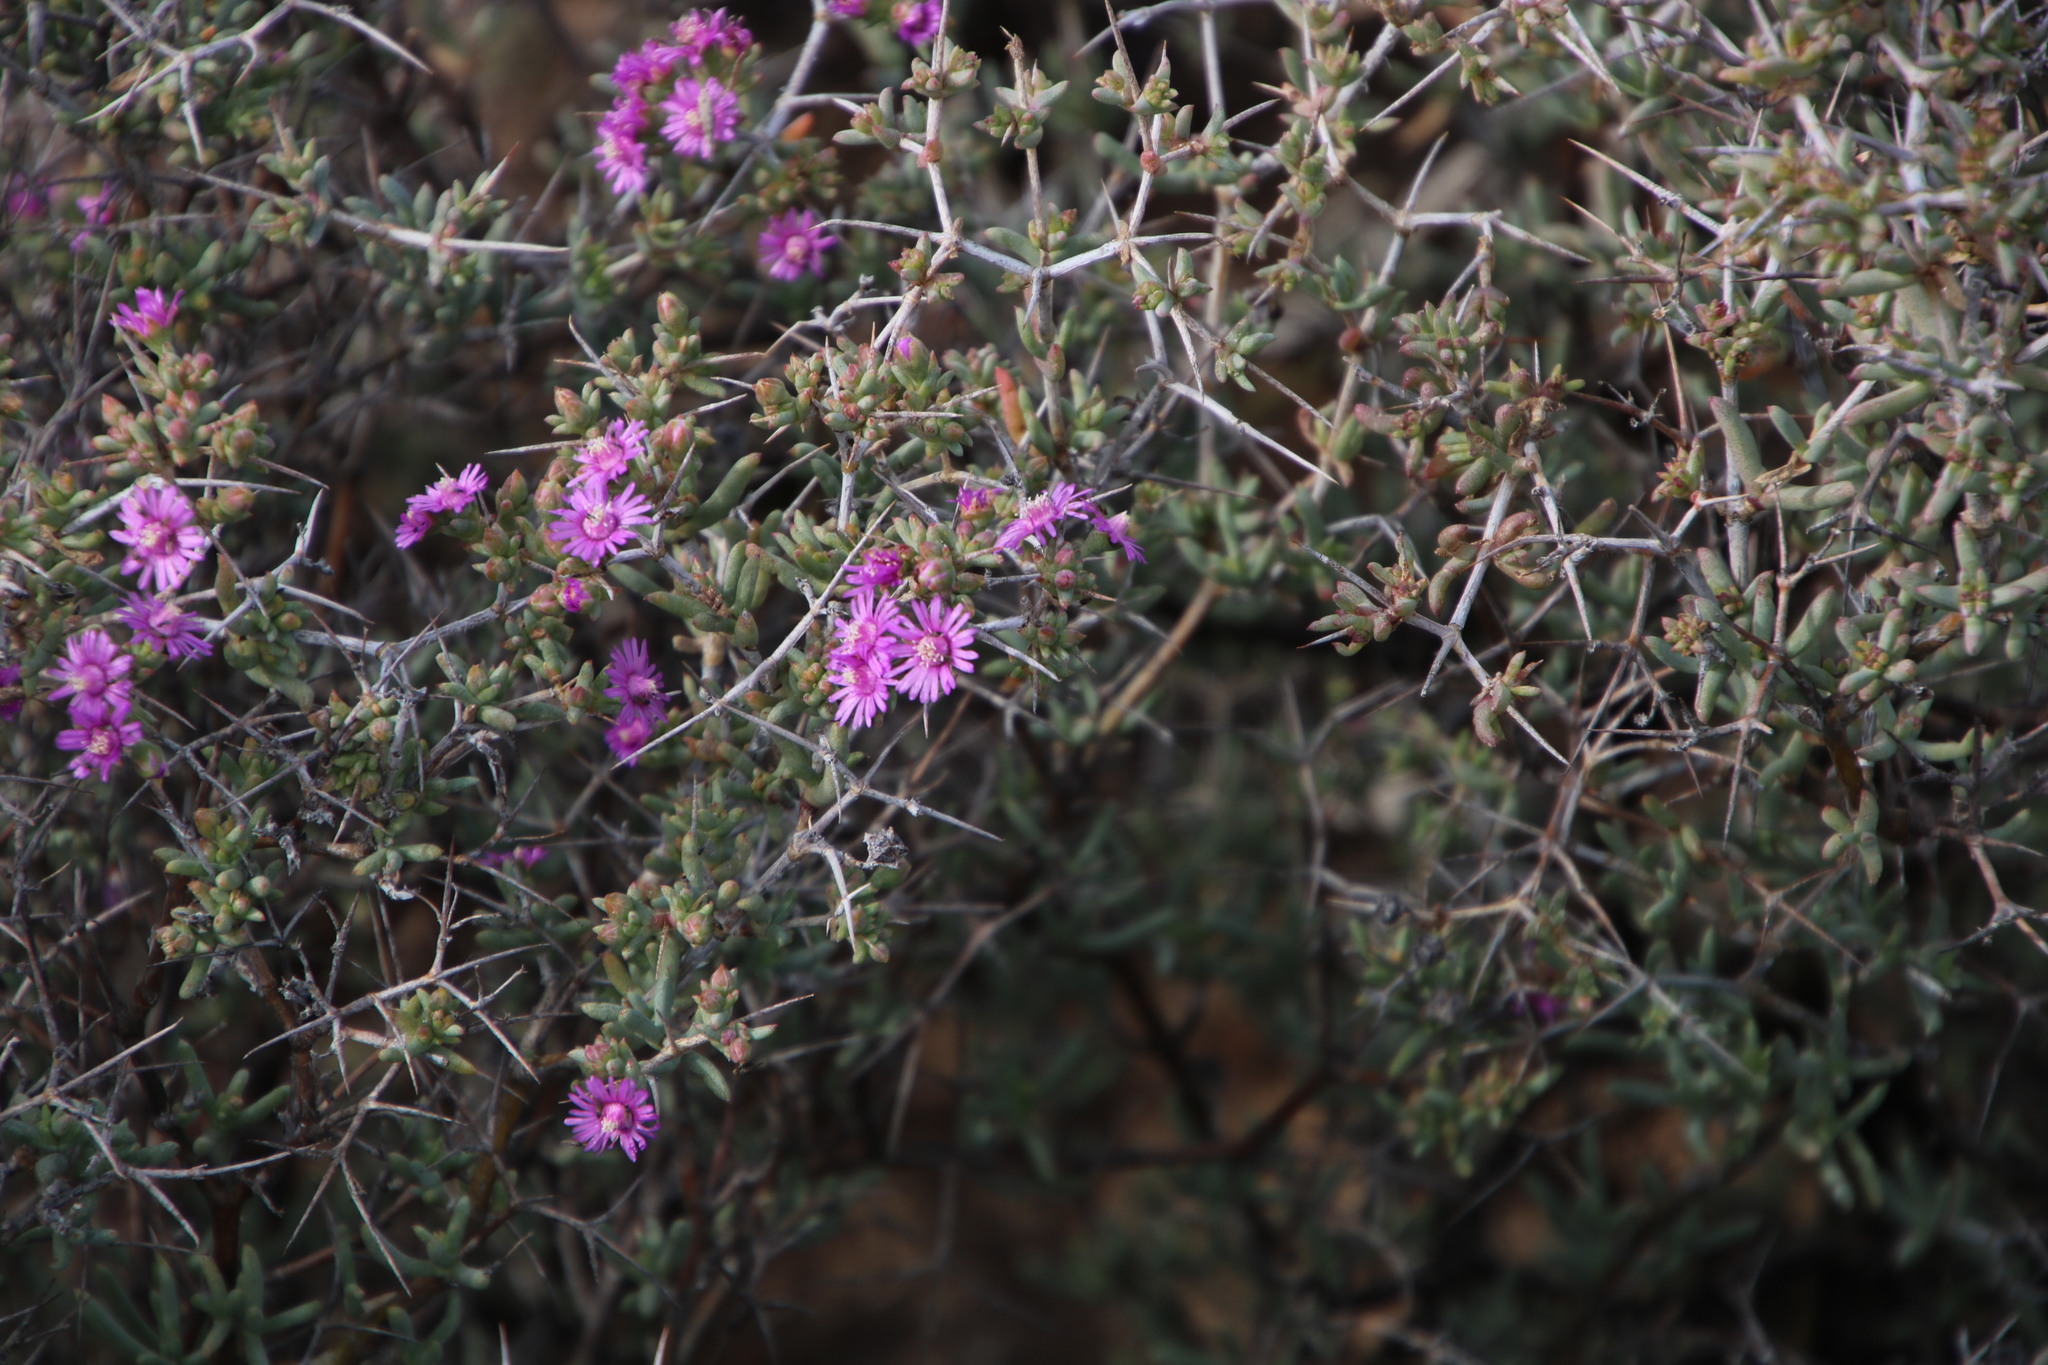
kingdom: Plantae
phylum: Tracheophyta
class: Magnoliopsida
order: Caryophyllales
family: Aizoaceae
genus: Ruschia
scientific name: Ruschia intricata
